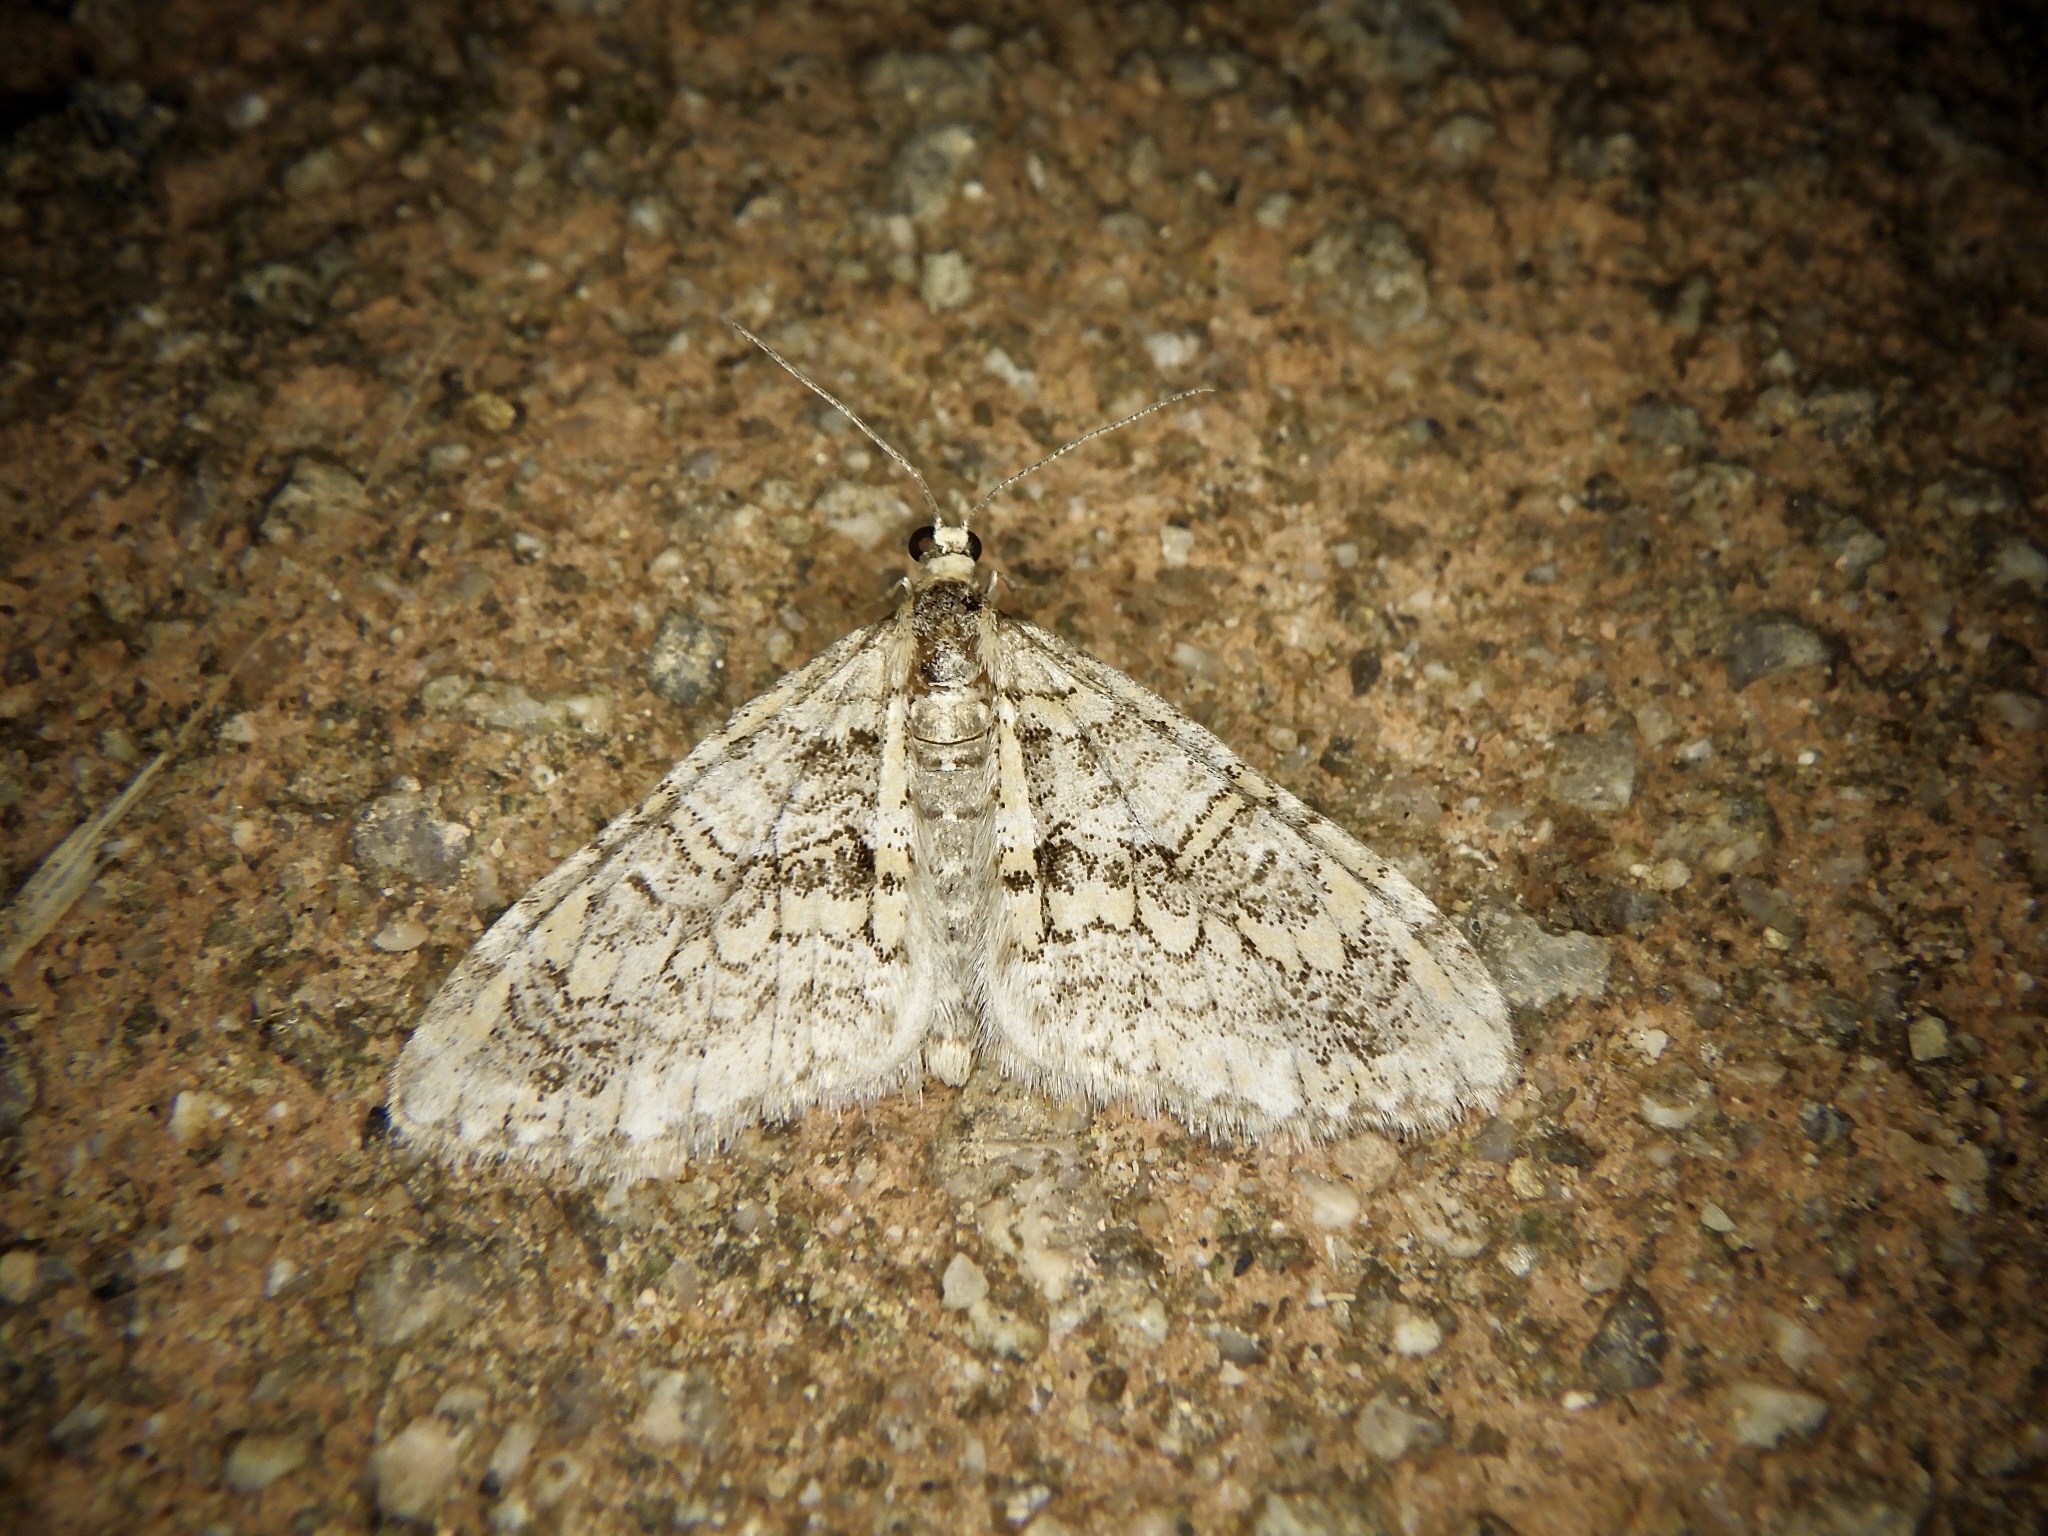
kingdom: Animalia
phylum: Arthropoda
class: Insecta
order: Lepidoptera
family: Geometridae
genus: Esakiopteryx
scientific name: Esakiopteryx volitans
